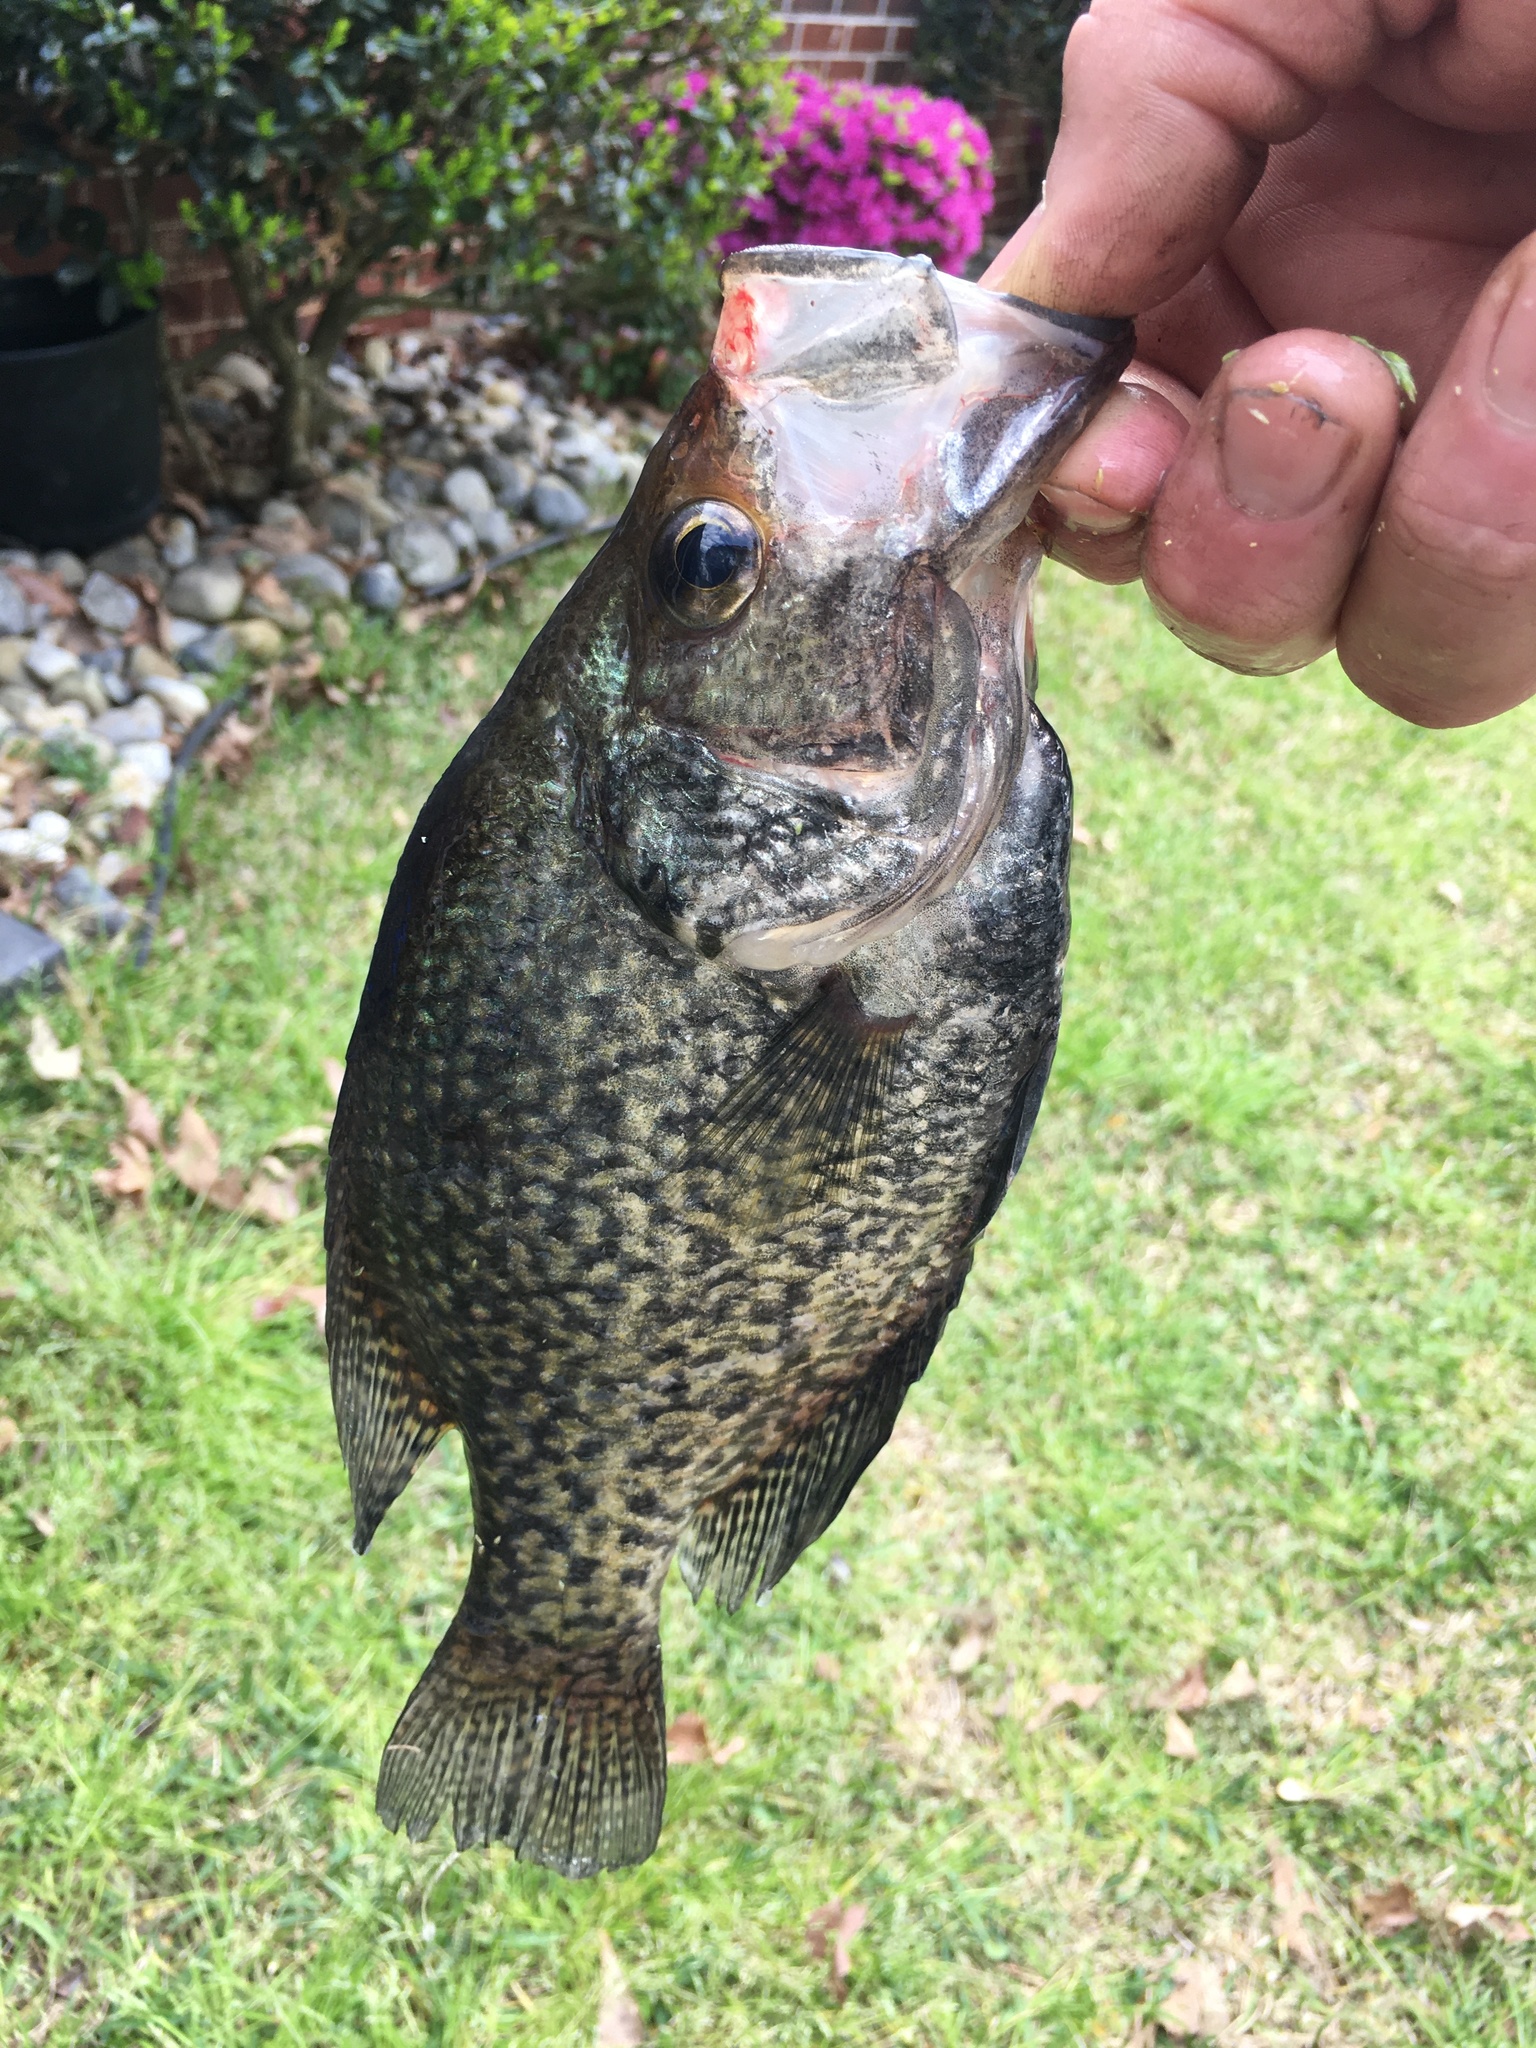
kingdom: Animalia
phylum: Chordata
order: Perciformes
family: Centrarchidae
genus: Pomoxis
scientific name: Pomoxis nigromaculatus
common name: Black crappie
